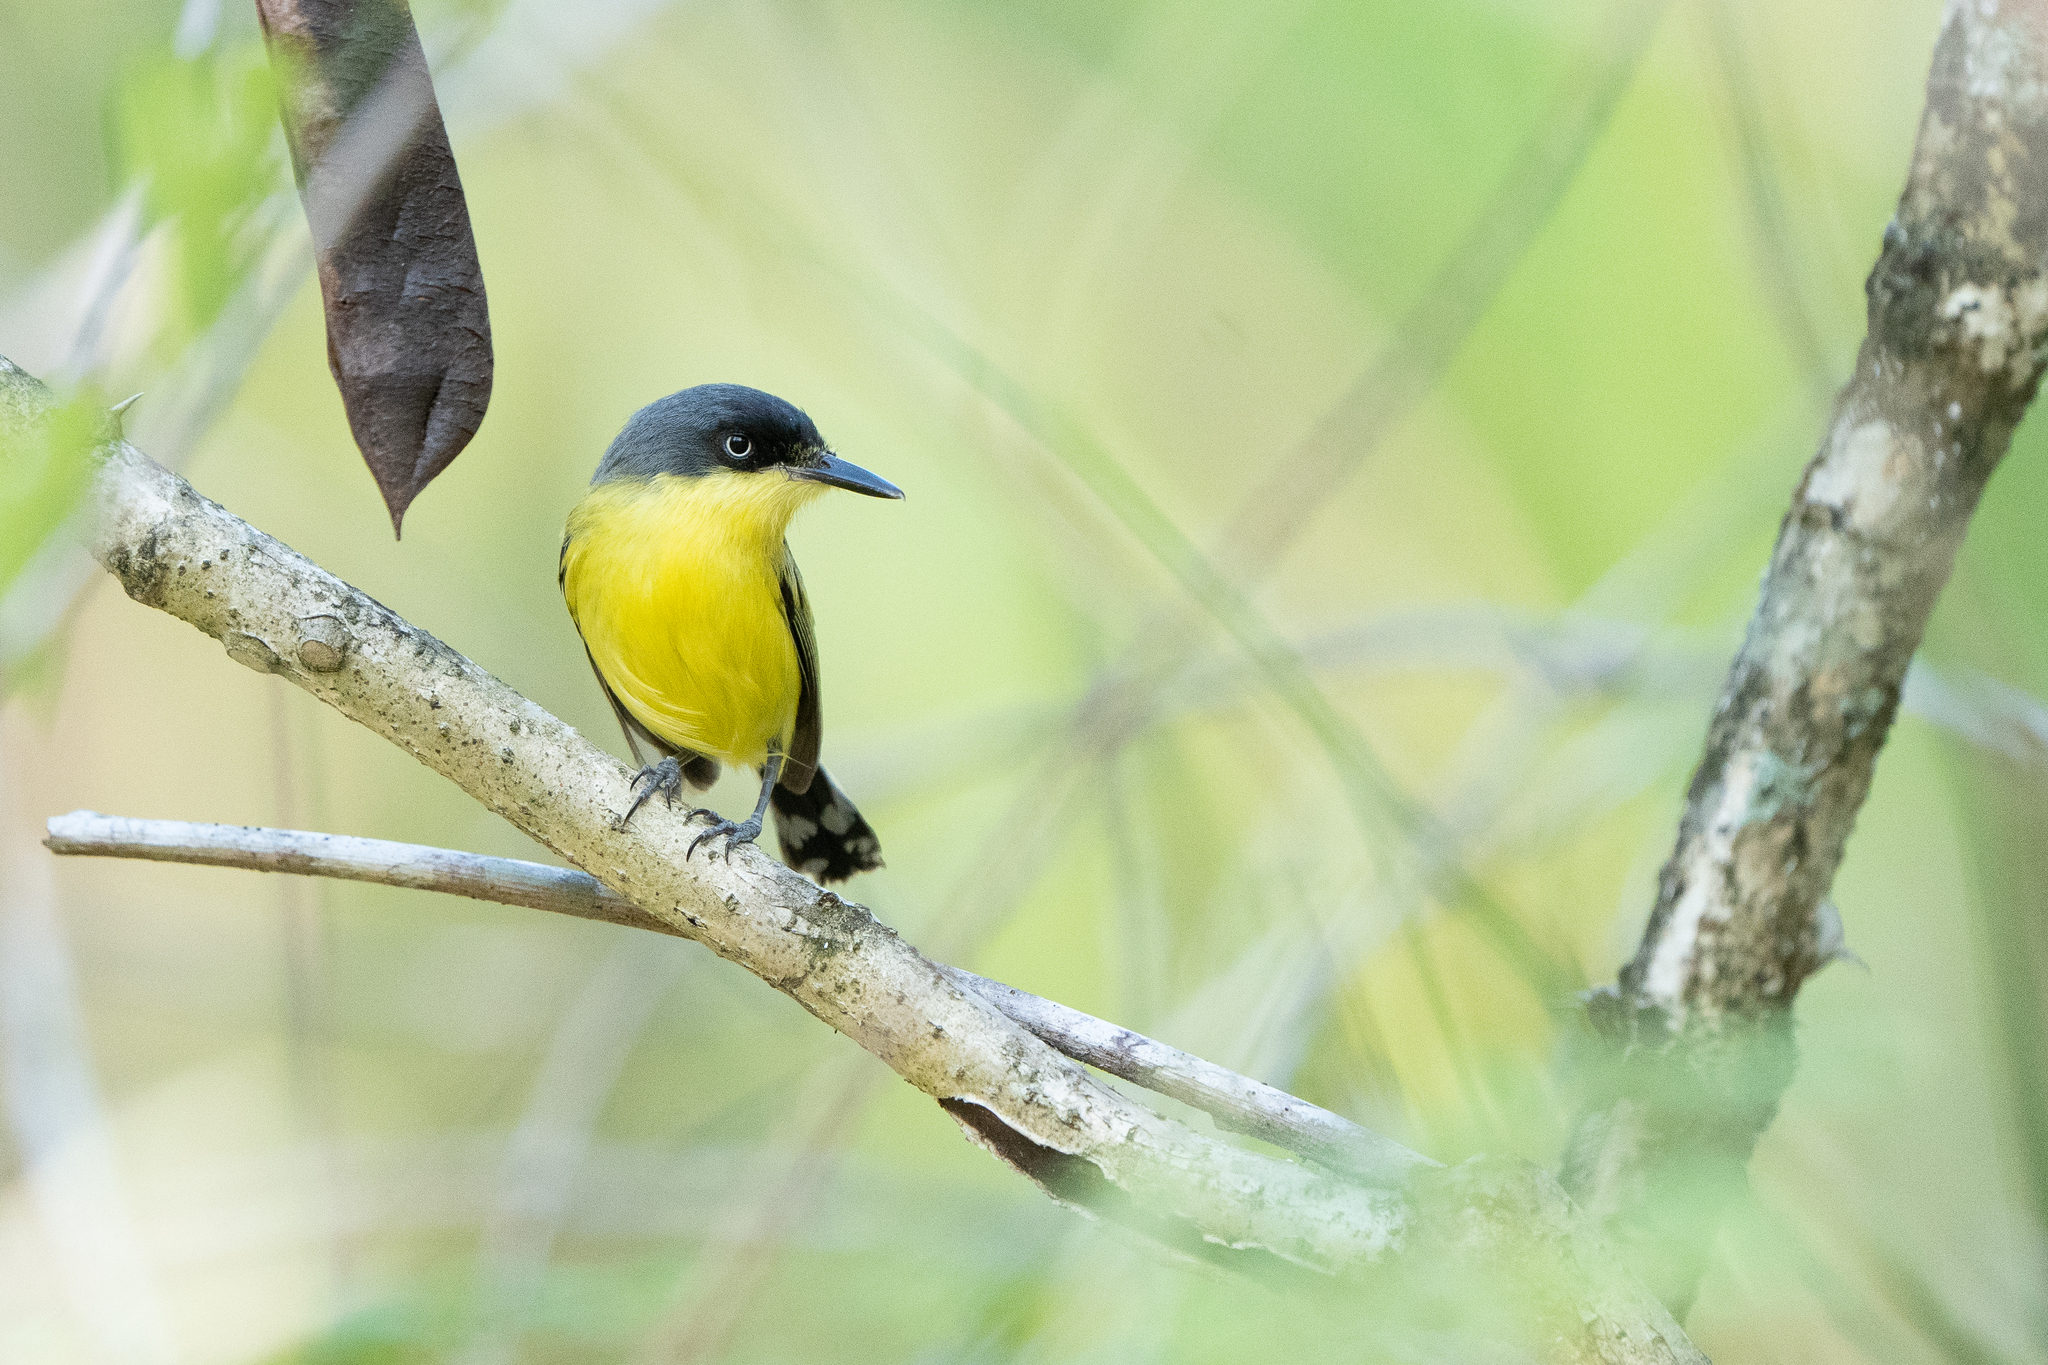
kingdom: Animalia
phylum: Chordata
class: Aves
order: Passeriformes
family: Tyrannidae
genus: Todirostrum
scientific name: Todirostrum cinereum
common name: Common tody-flycatcher
